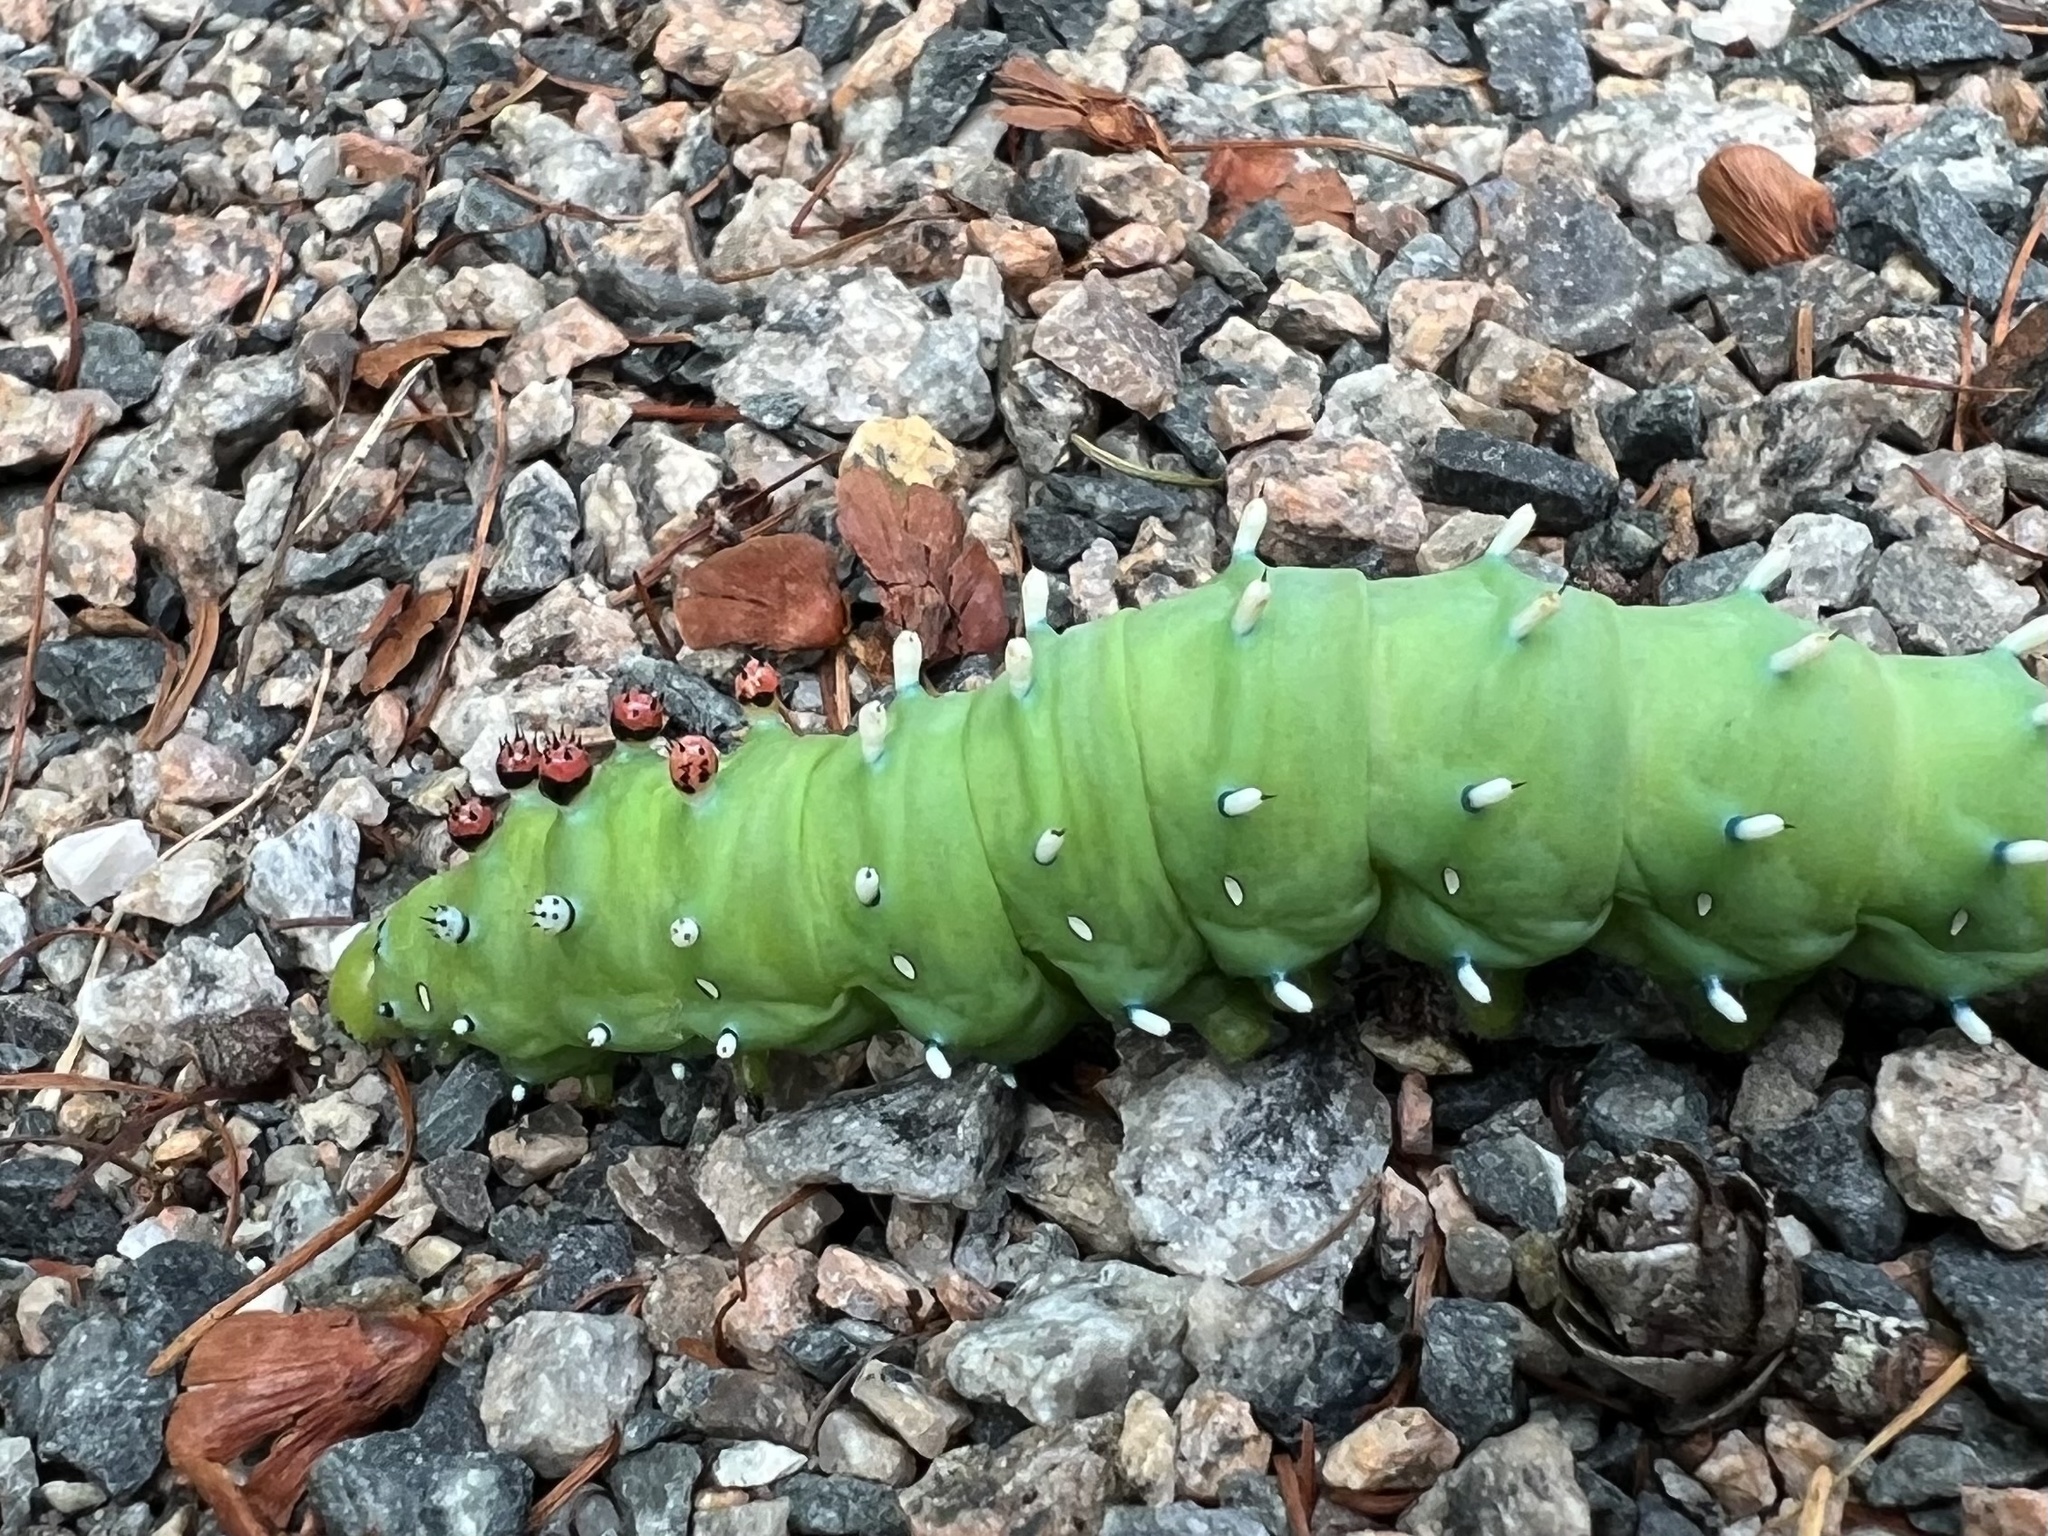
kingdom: Animalia
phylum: Arthropoda
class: Insecta
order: Lepidoptera
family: Saturniidae
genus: Hyalophora
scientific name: Hyalophora columbia
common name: Columbia silkmoth
